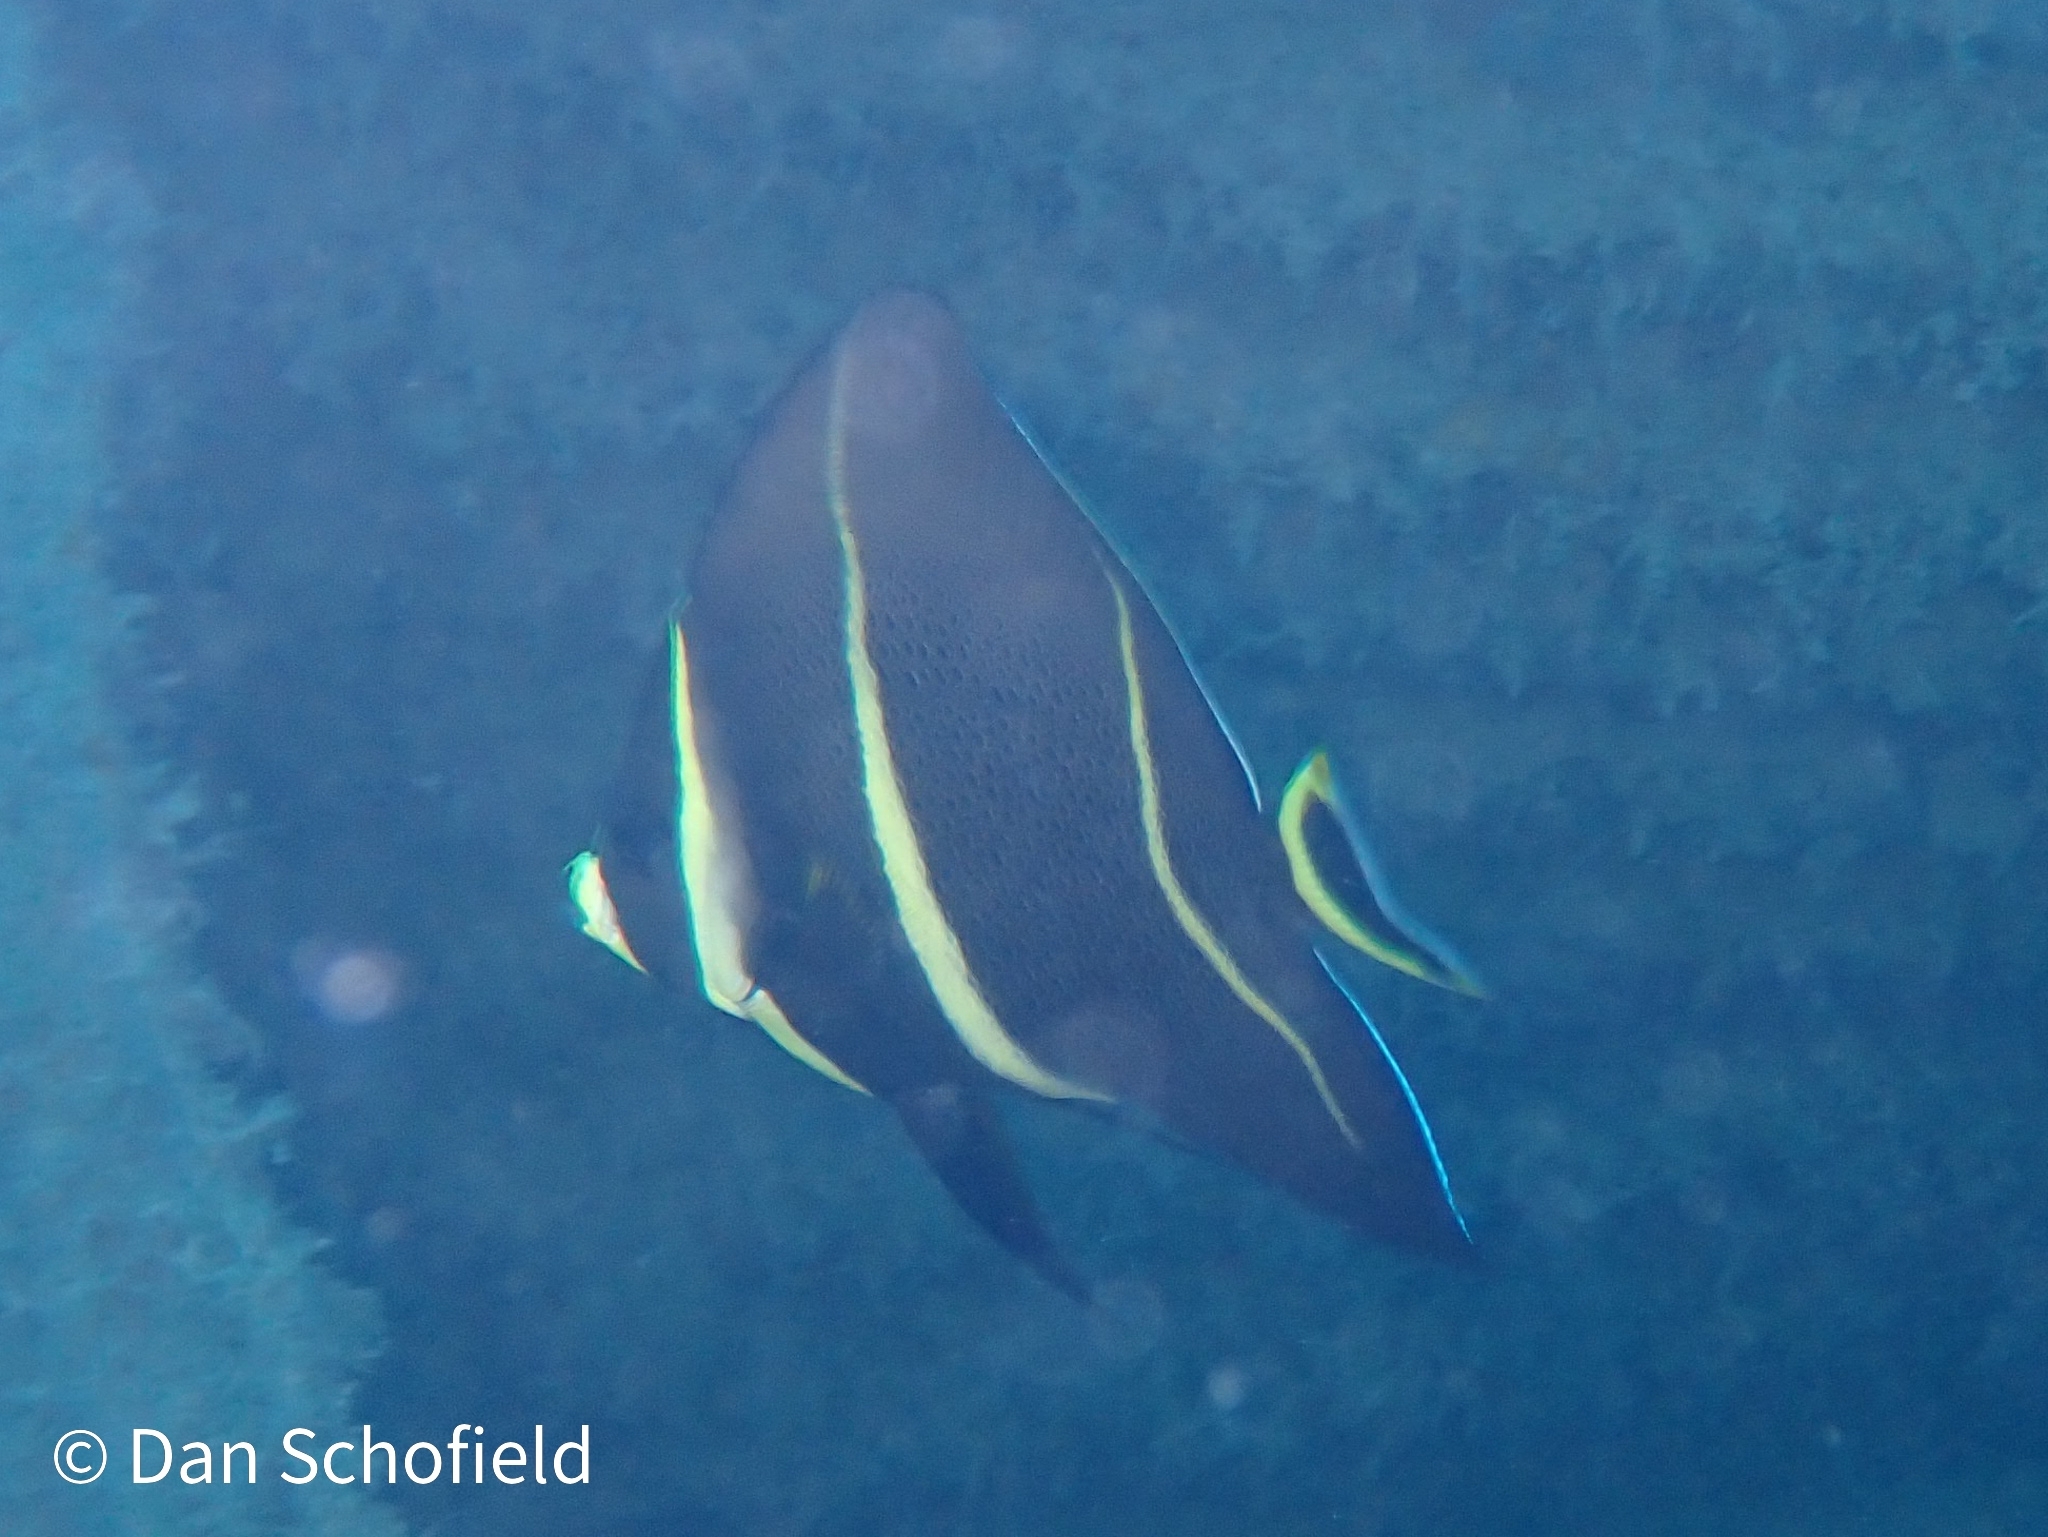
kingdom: Animalia
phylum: Chordata
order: Perciformes
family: Pomacanthidae
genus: Pomacanthus
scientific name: Pomacanthus arcuatus
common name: Gray angelfish
